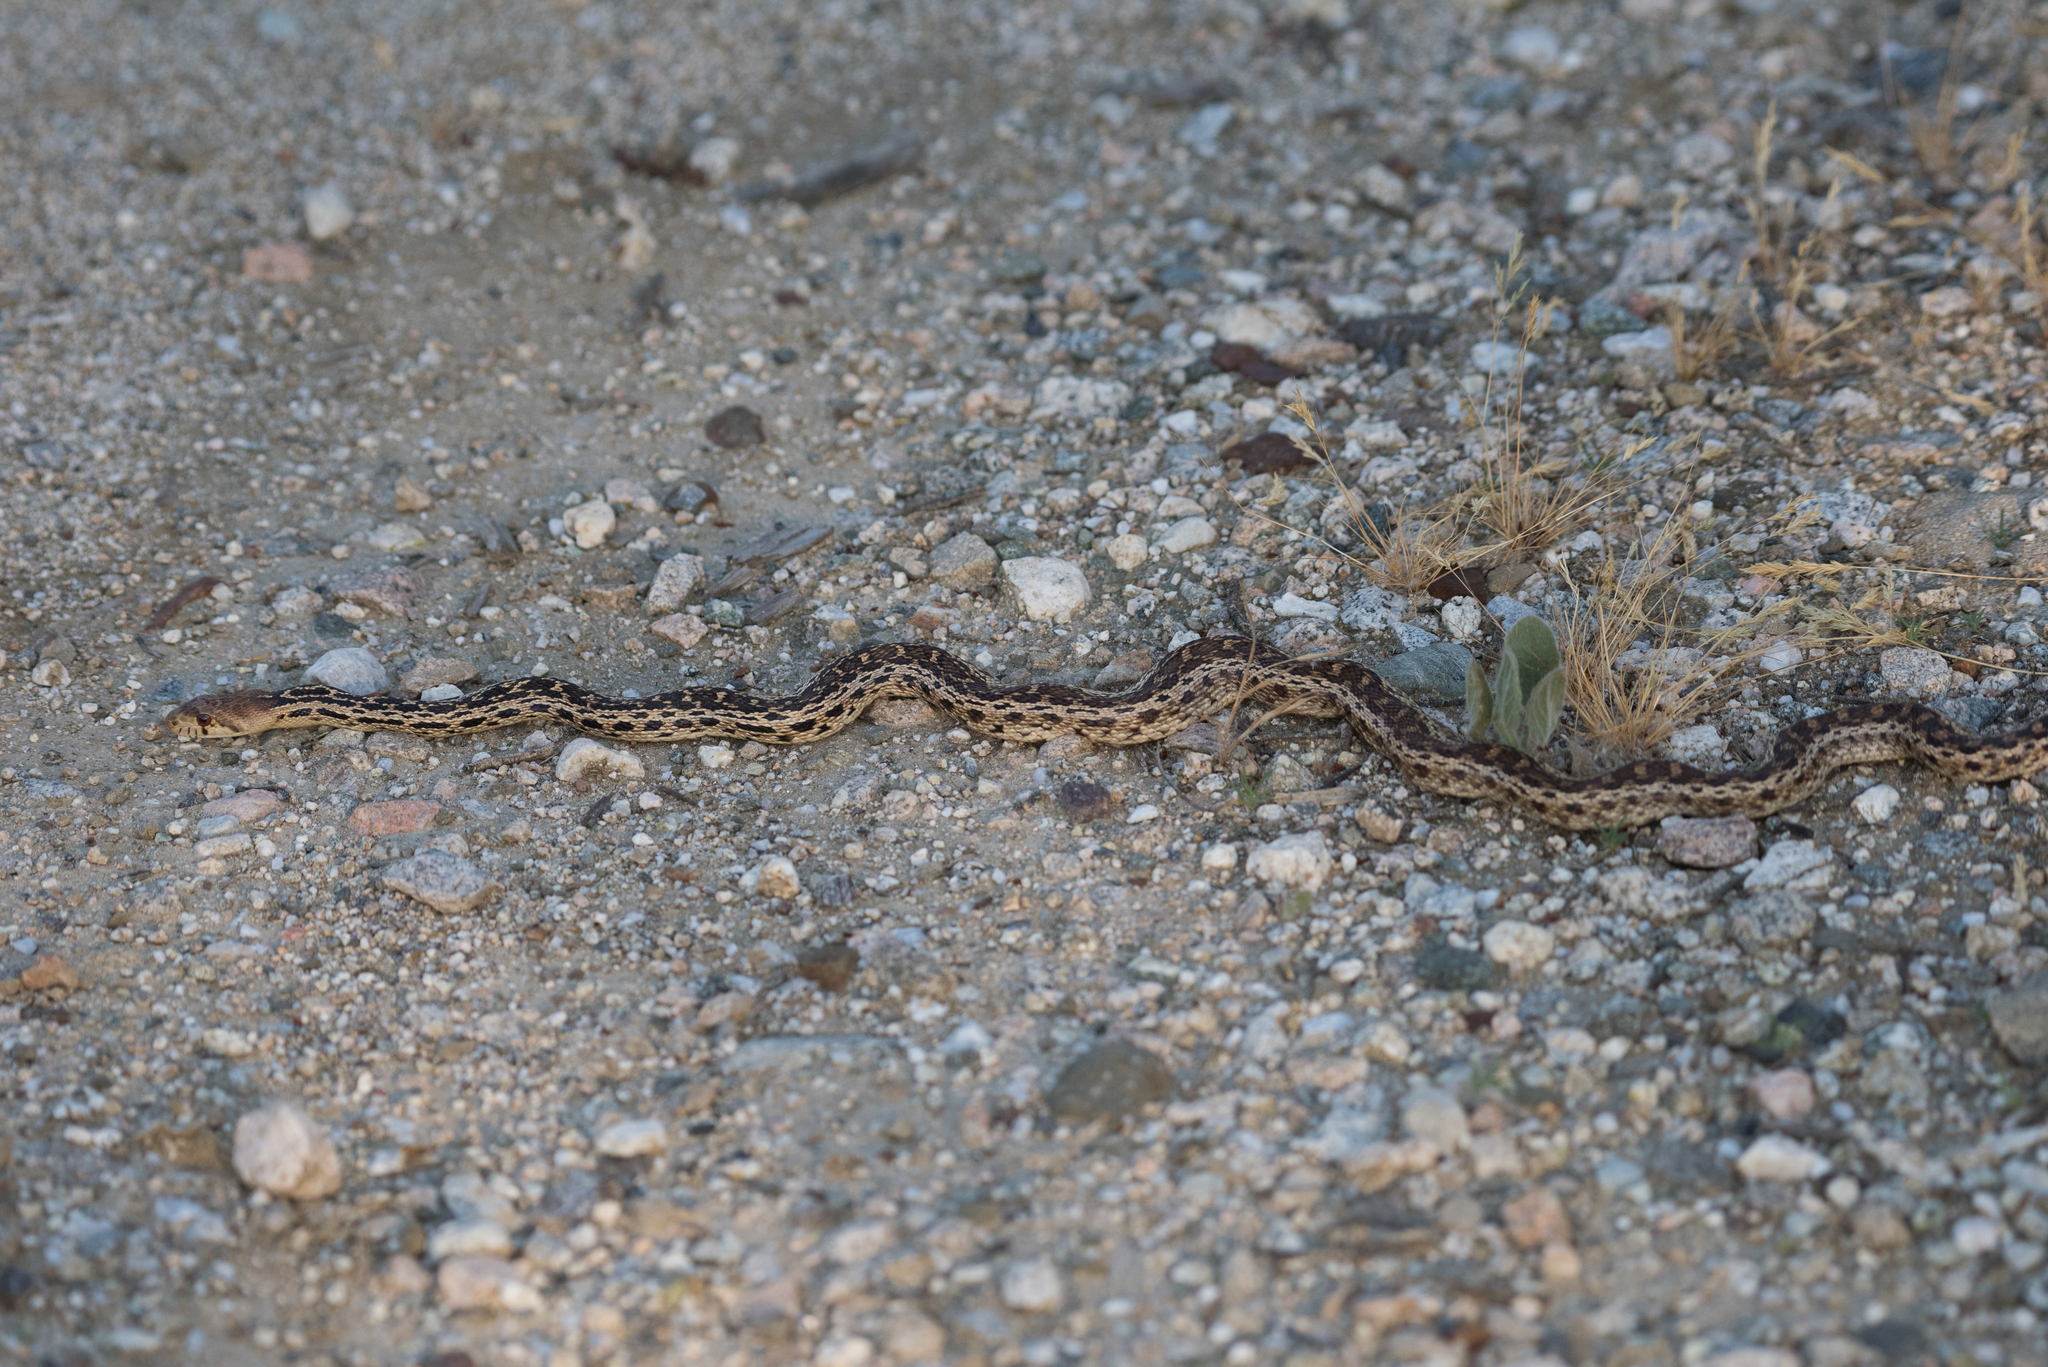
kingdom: Animalia
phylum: Chordata
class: Squamata
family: Colubridae
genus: Pituophis
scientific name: Pituophis catenifer
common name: Gopher snake
